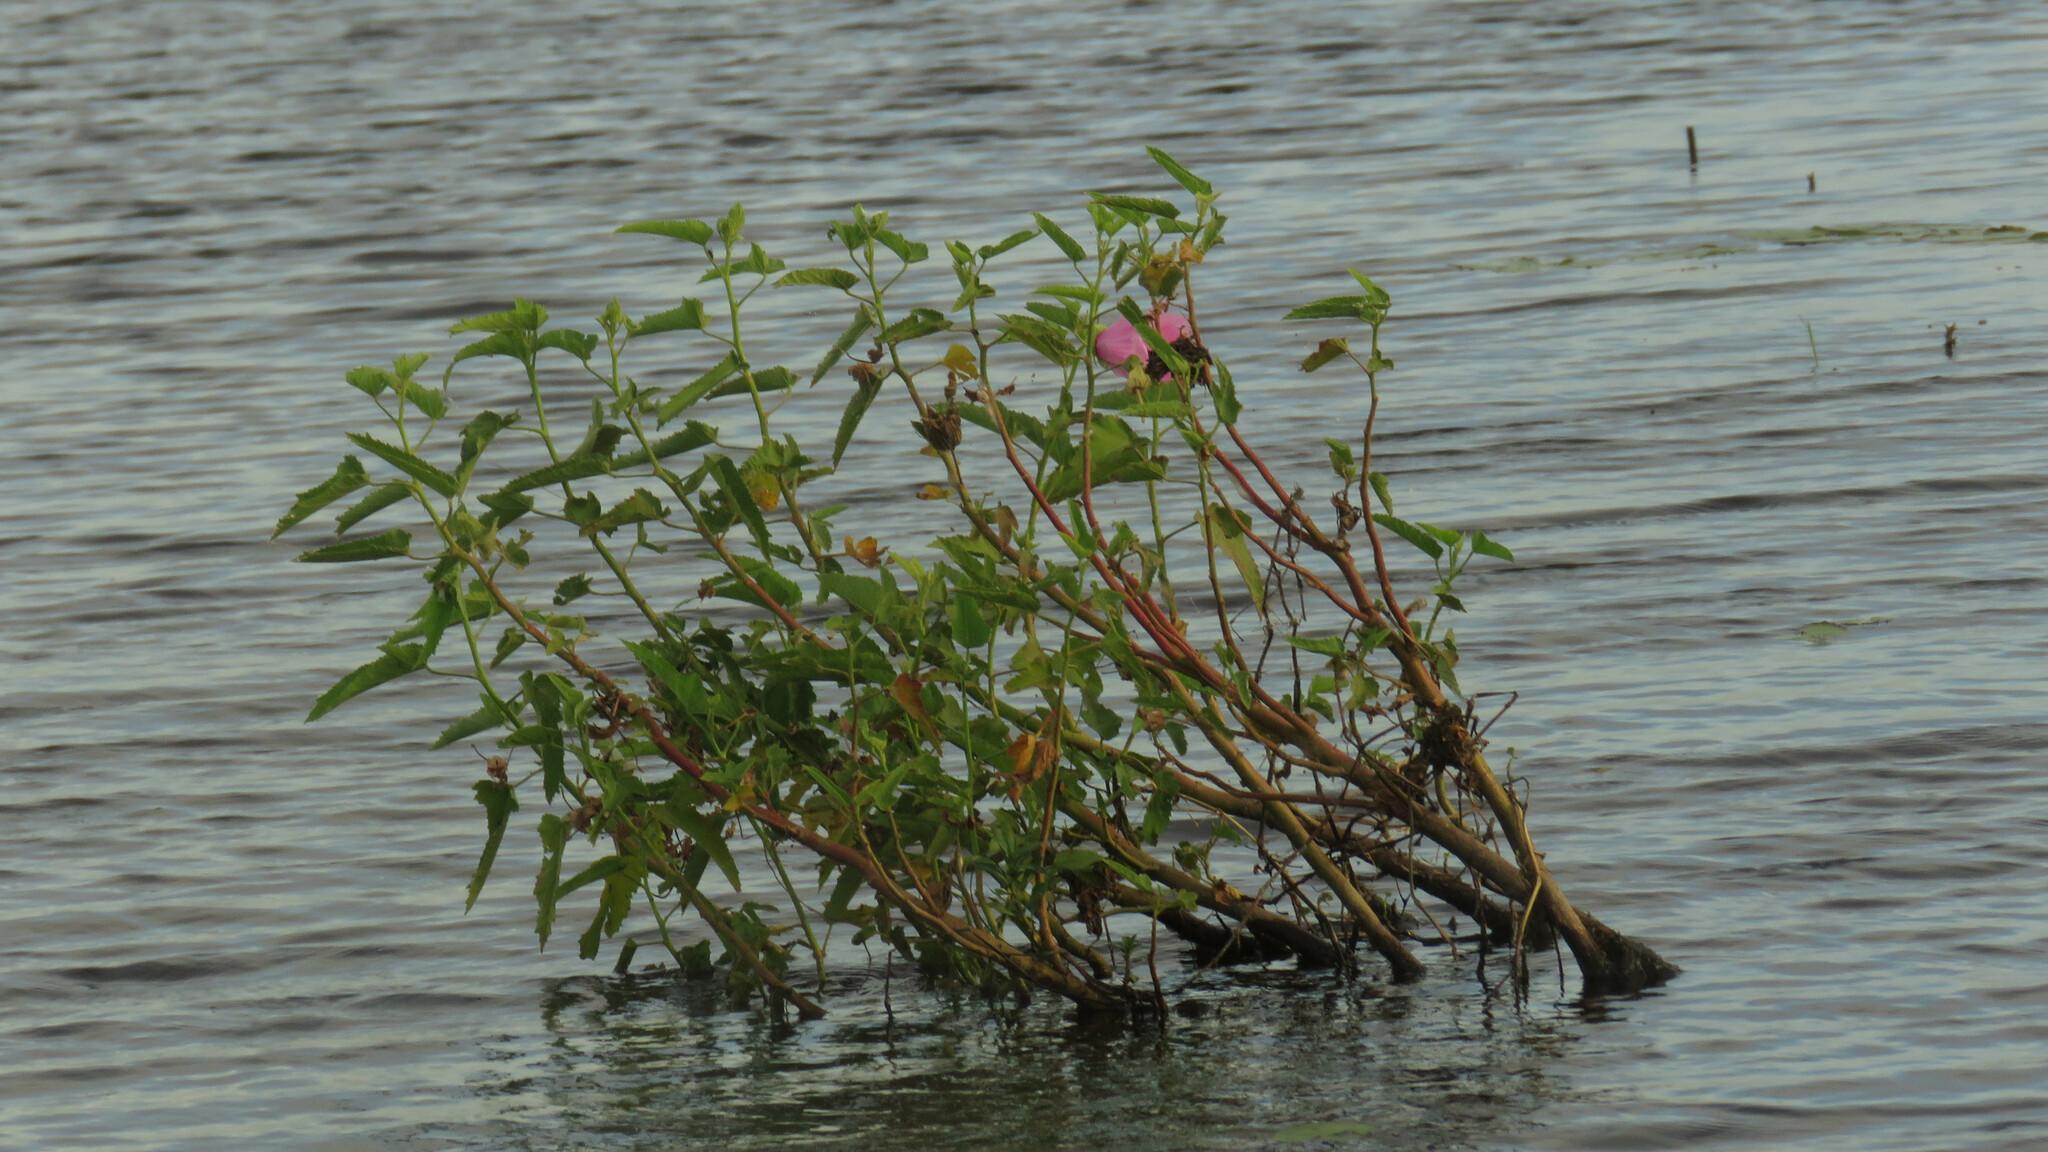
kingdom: Plantae
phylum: Tracheophyta
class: Magnoliopsida
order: Malvales
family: Malvaceae
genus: Hibiscus
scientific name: Hibiscus striatus
